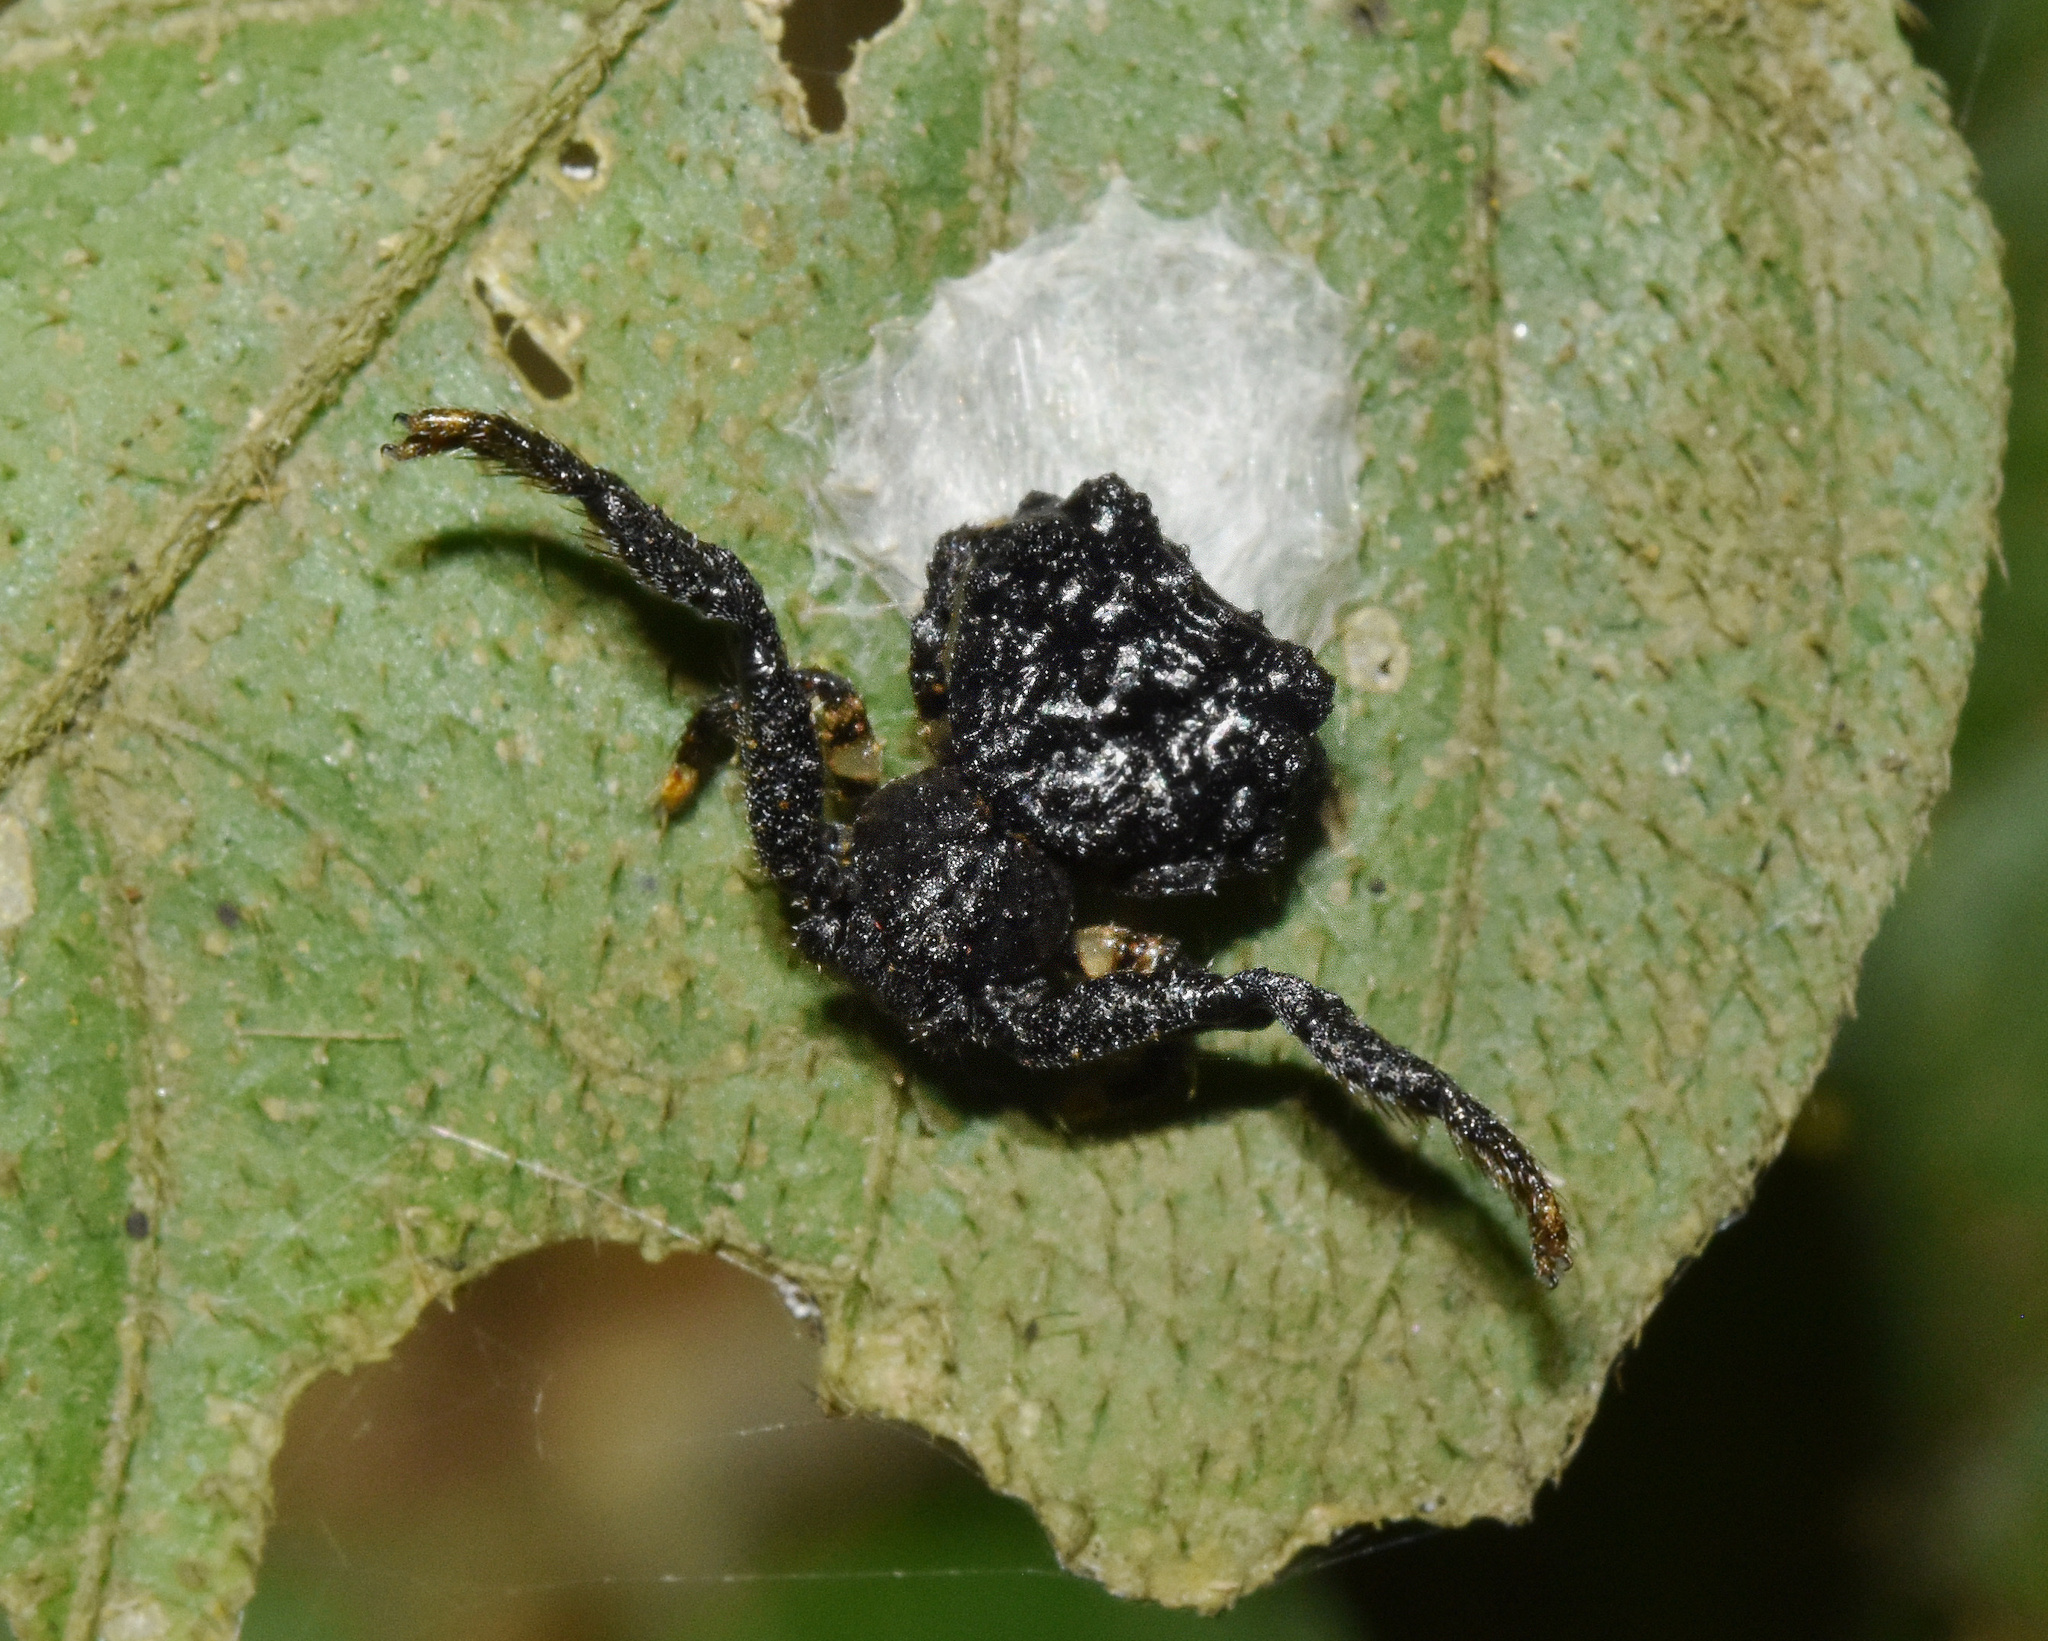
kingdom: Animalia
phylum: Arthropoda
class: Arachnida
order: Araneae
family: Thomisidae
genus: Phrynarachne
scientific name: Phrynarachne rugosa
